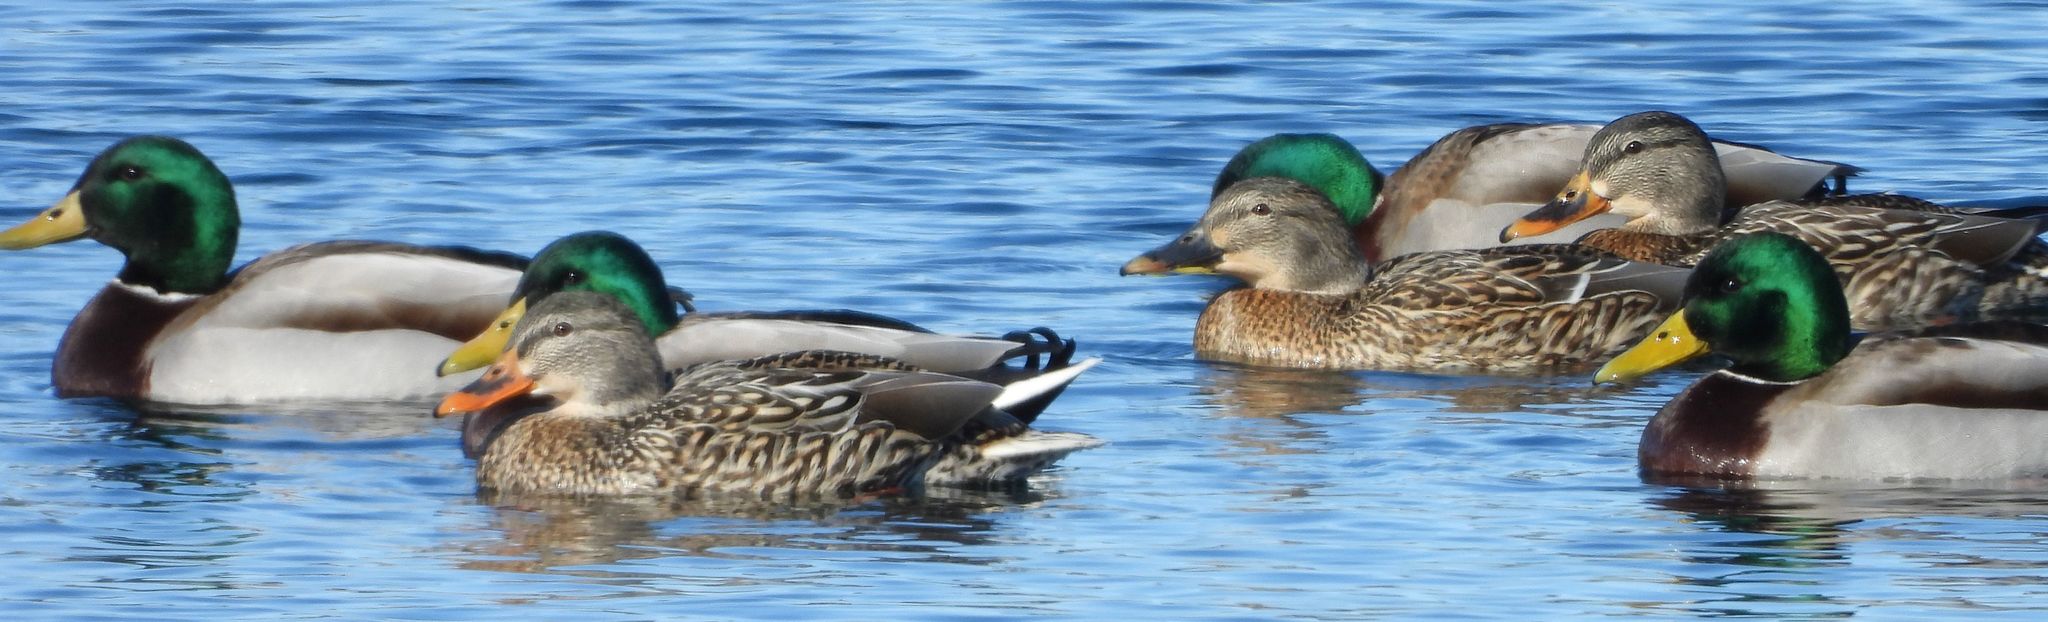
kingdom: Animalia
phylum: Chordata
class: Aves
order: Anseriformes
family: Anatidae
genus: Anas
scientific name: Anas platyrhynchos
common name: Mallard
